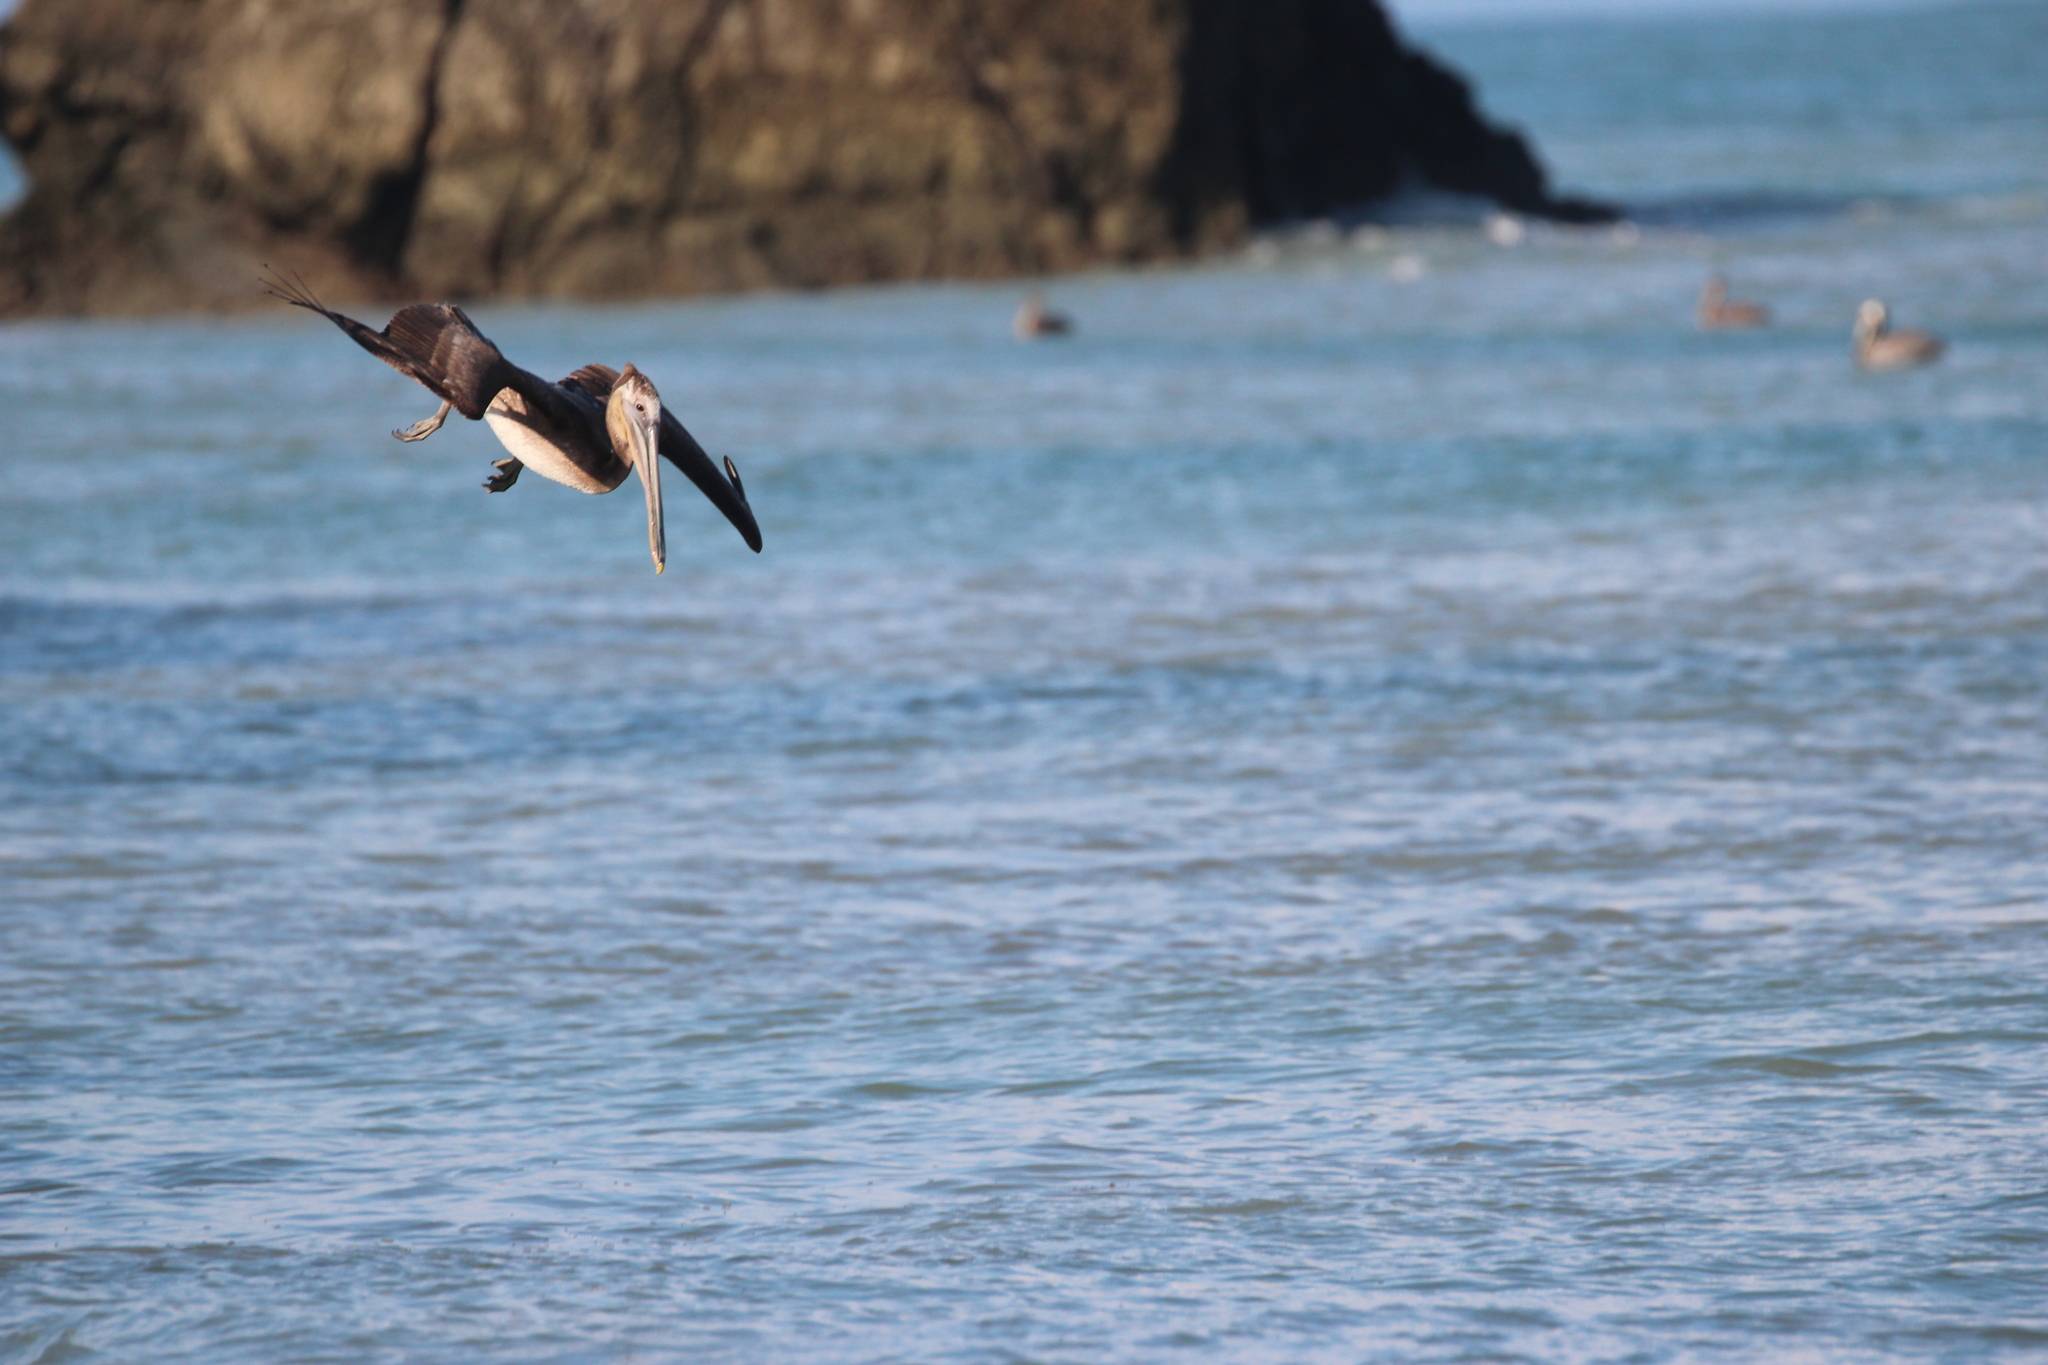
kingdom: Animalia
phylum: Chordata
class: Aves
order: Pelecaniformes
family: Pelecanidae
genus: Pelecanus
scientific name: Pelecanus occidentalis
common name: Brown pelican
